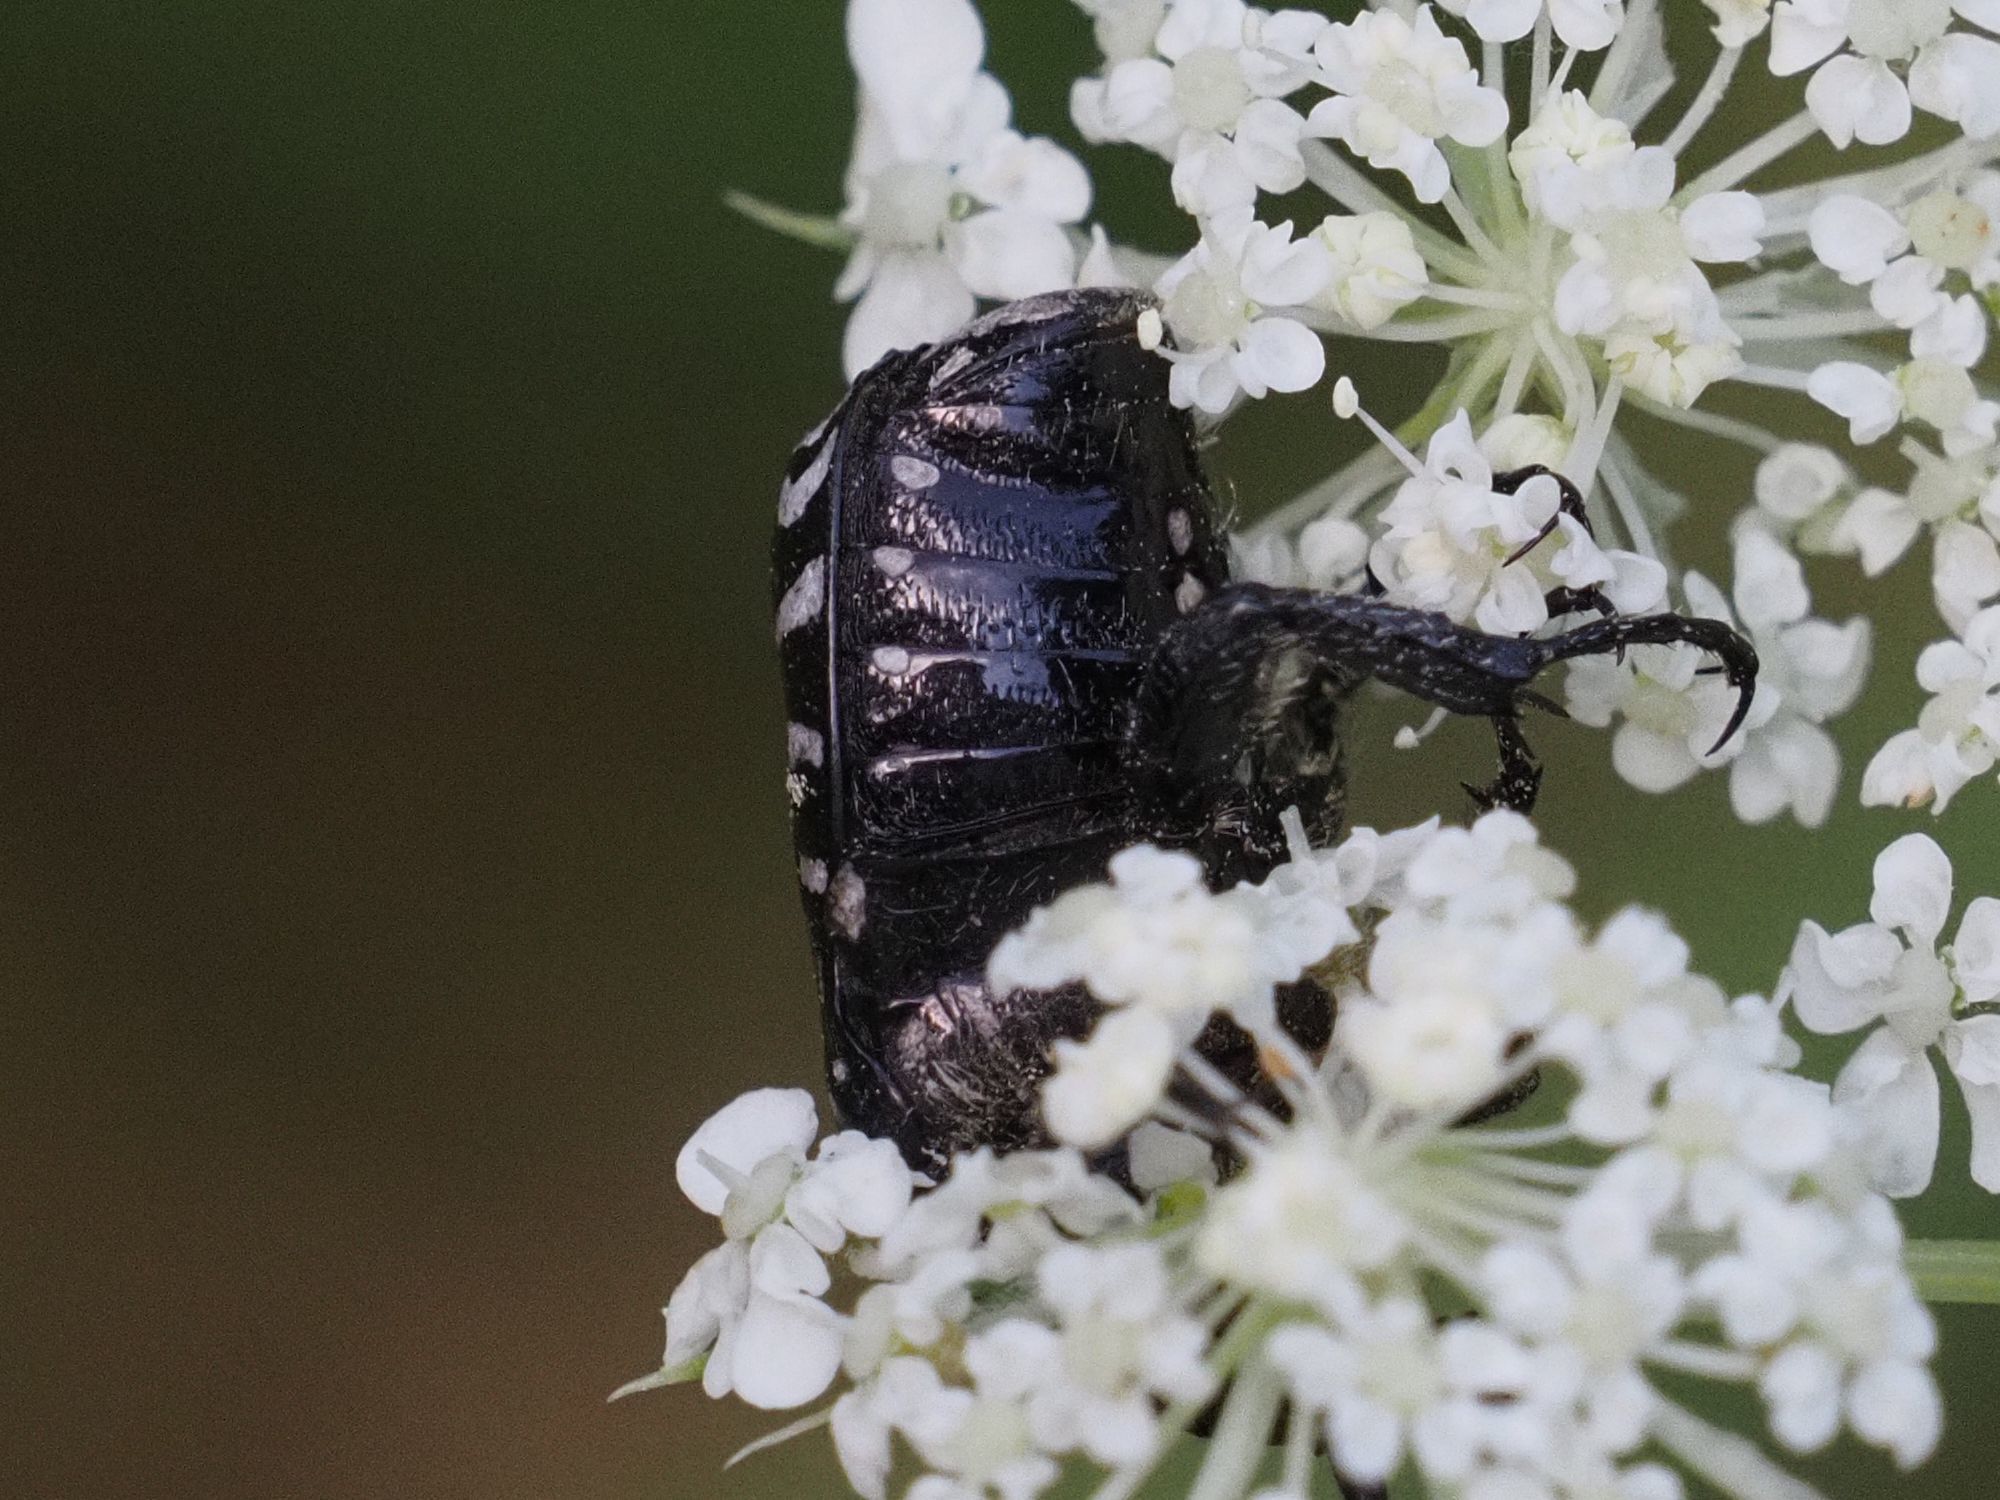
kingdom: Animalia
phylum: Arthropoda
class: Insecta
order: Coleoptera
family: Scarabaeidae
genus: Oxythyrea
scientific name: Oxythyrea funesta
